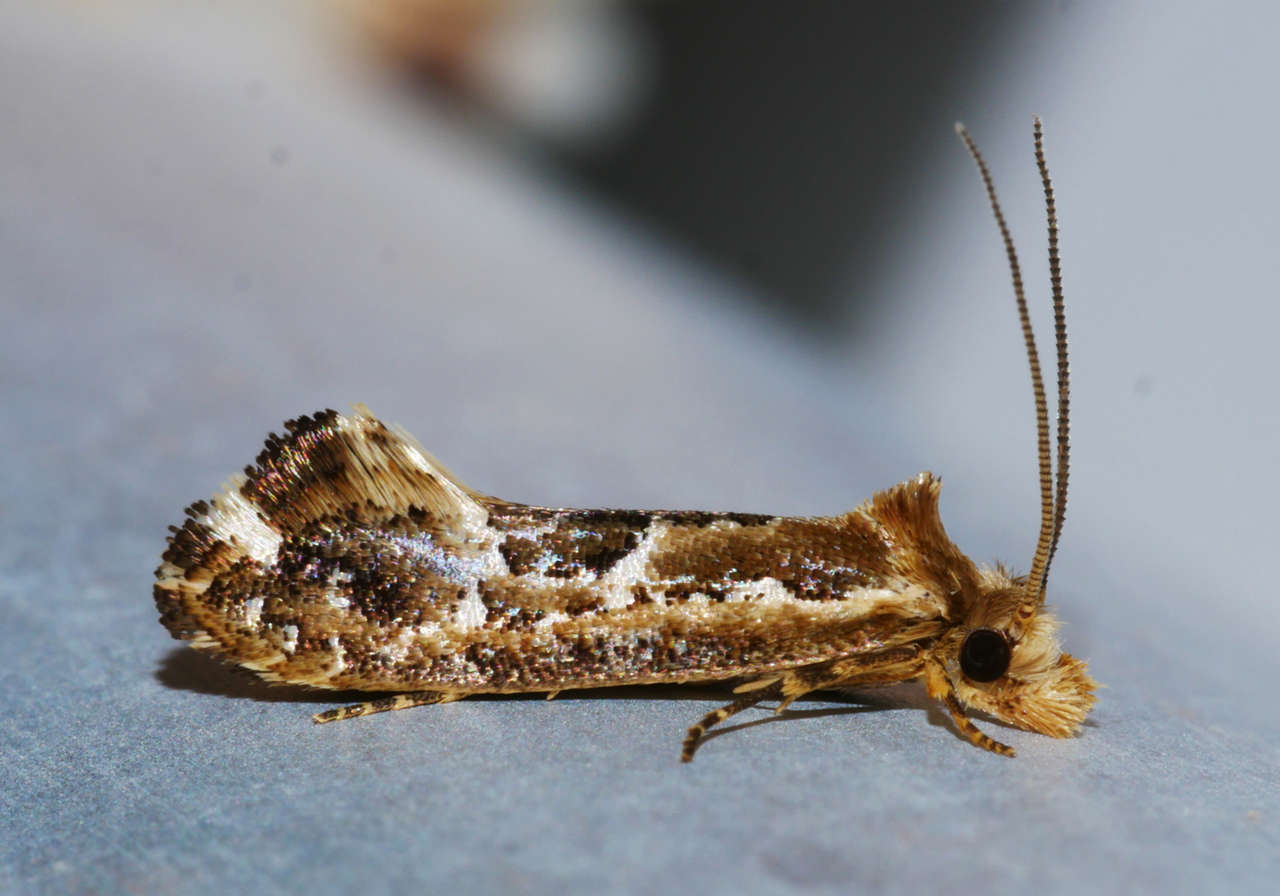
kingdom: Animalia
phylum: Arthropoda
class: Insecta
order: Lepidoptera
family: Tineidae
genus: Moerarchis
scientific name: Moerarchis inconcisella
